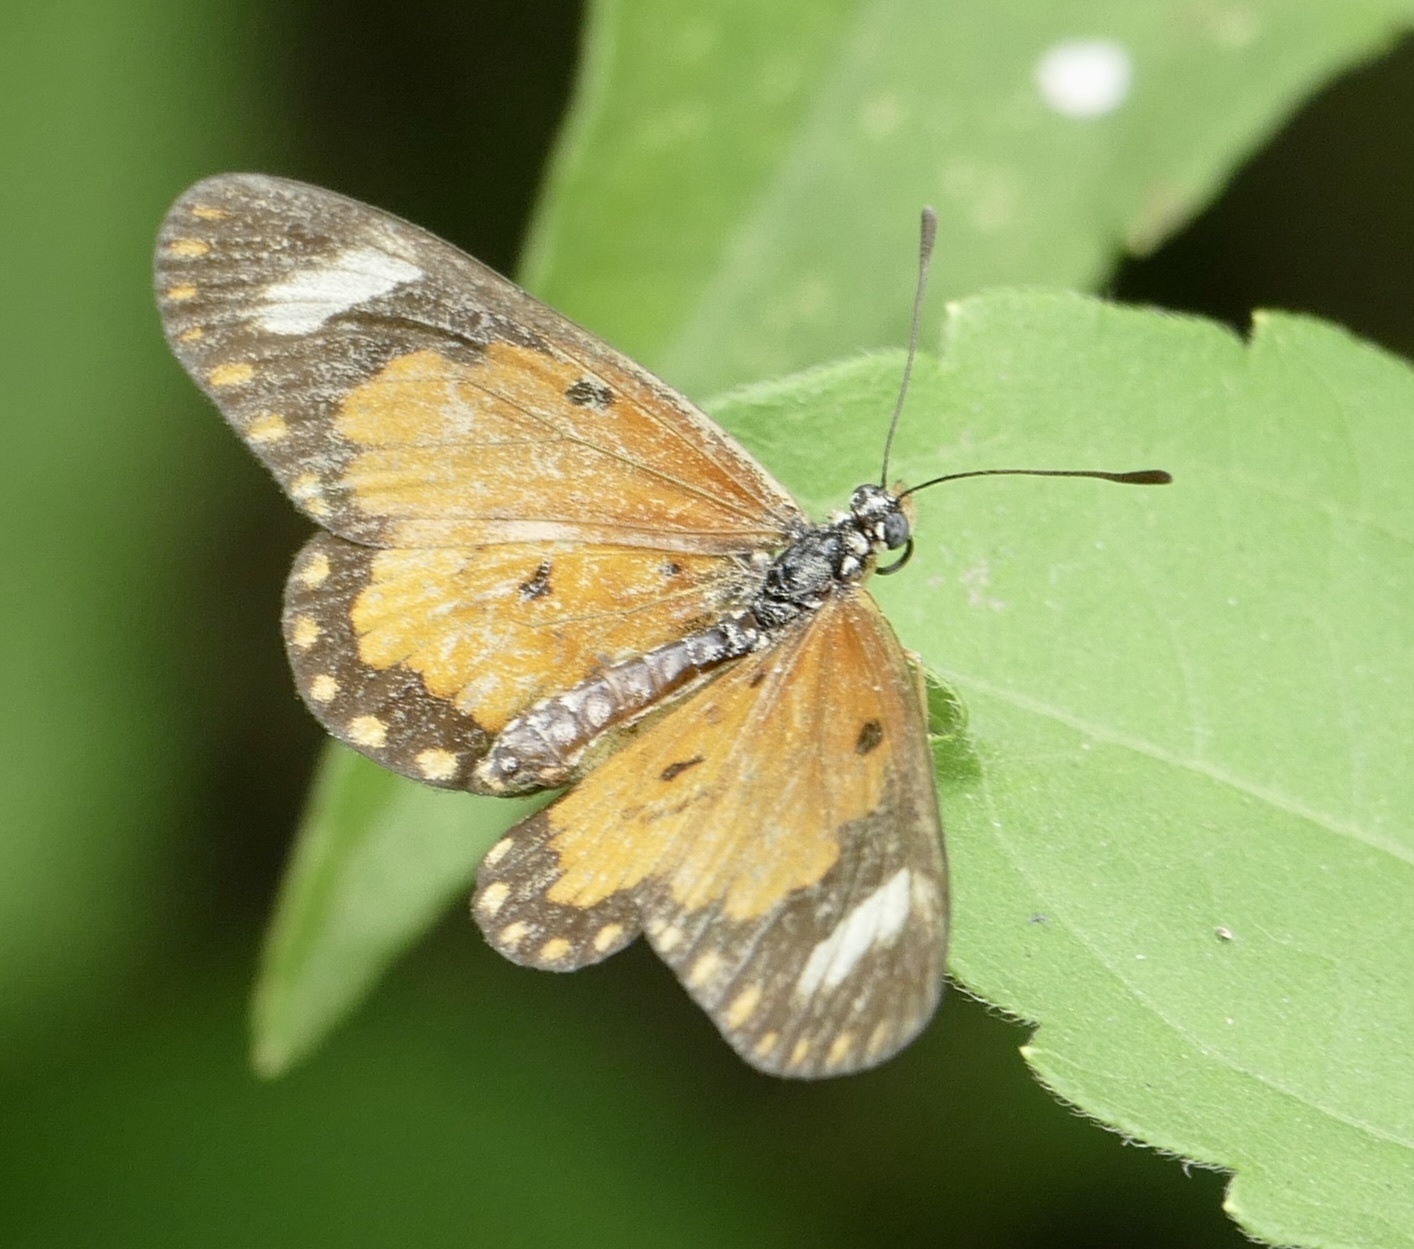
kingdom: Animalia
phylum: Arthropoda
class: Insecta
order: Lepidoptera
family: Nymphalidae
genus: Acraea
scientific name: Acraea Telchinia serena
